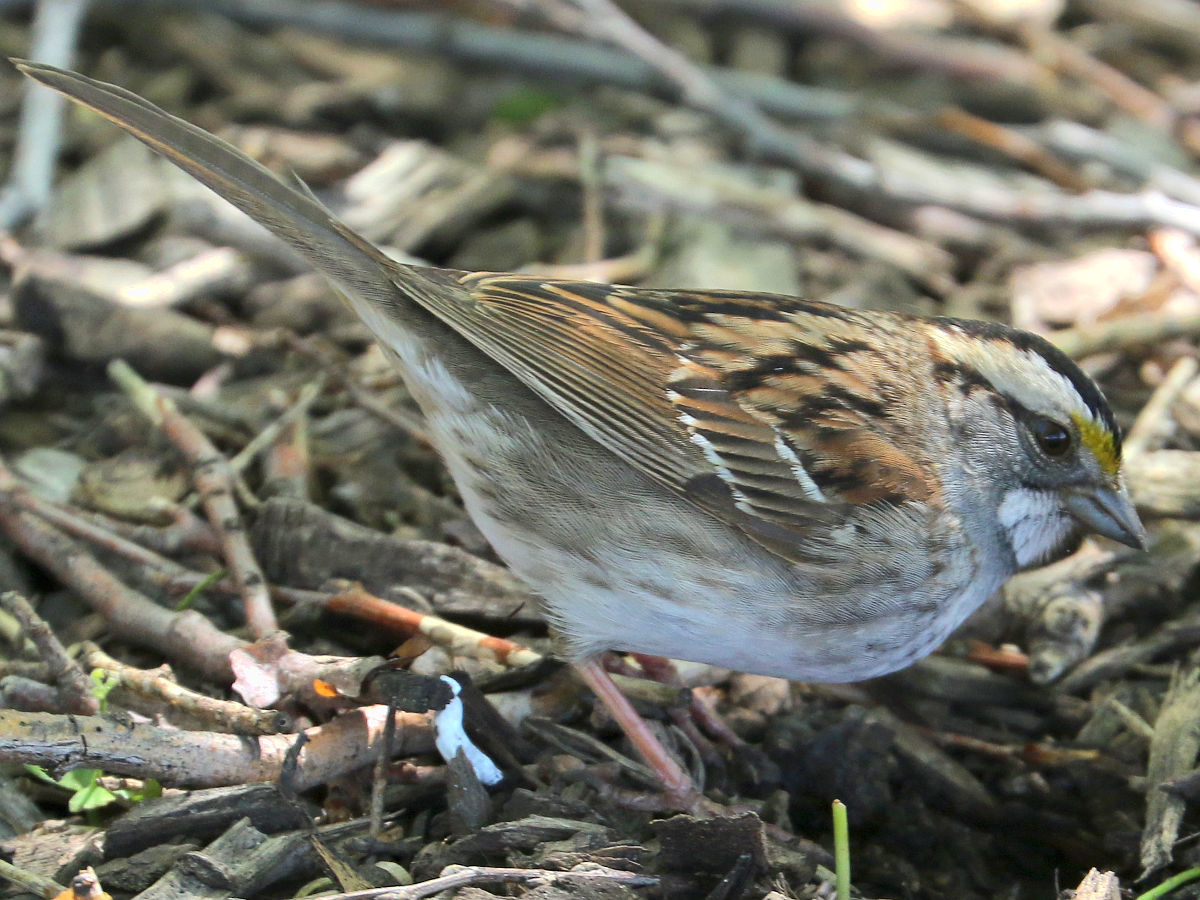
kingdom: Animalia
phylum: Chordata
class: Aves
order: Passeriformes
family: Passerellidae
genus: Zonotrichia
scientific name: Zonotrichia albicollis
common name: White-throated sparrow
